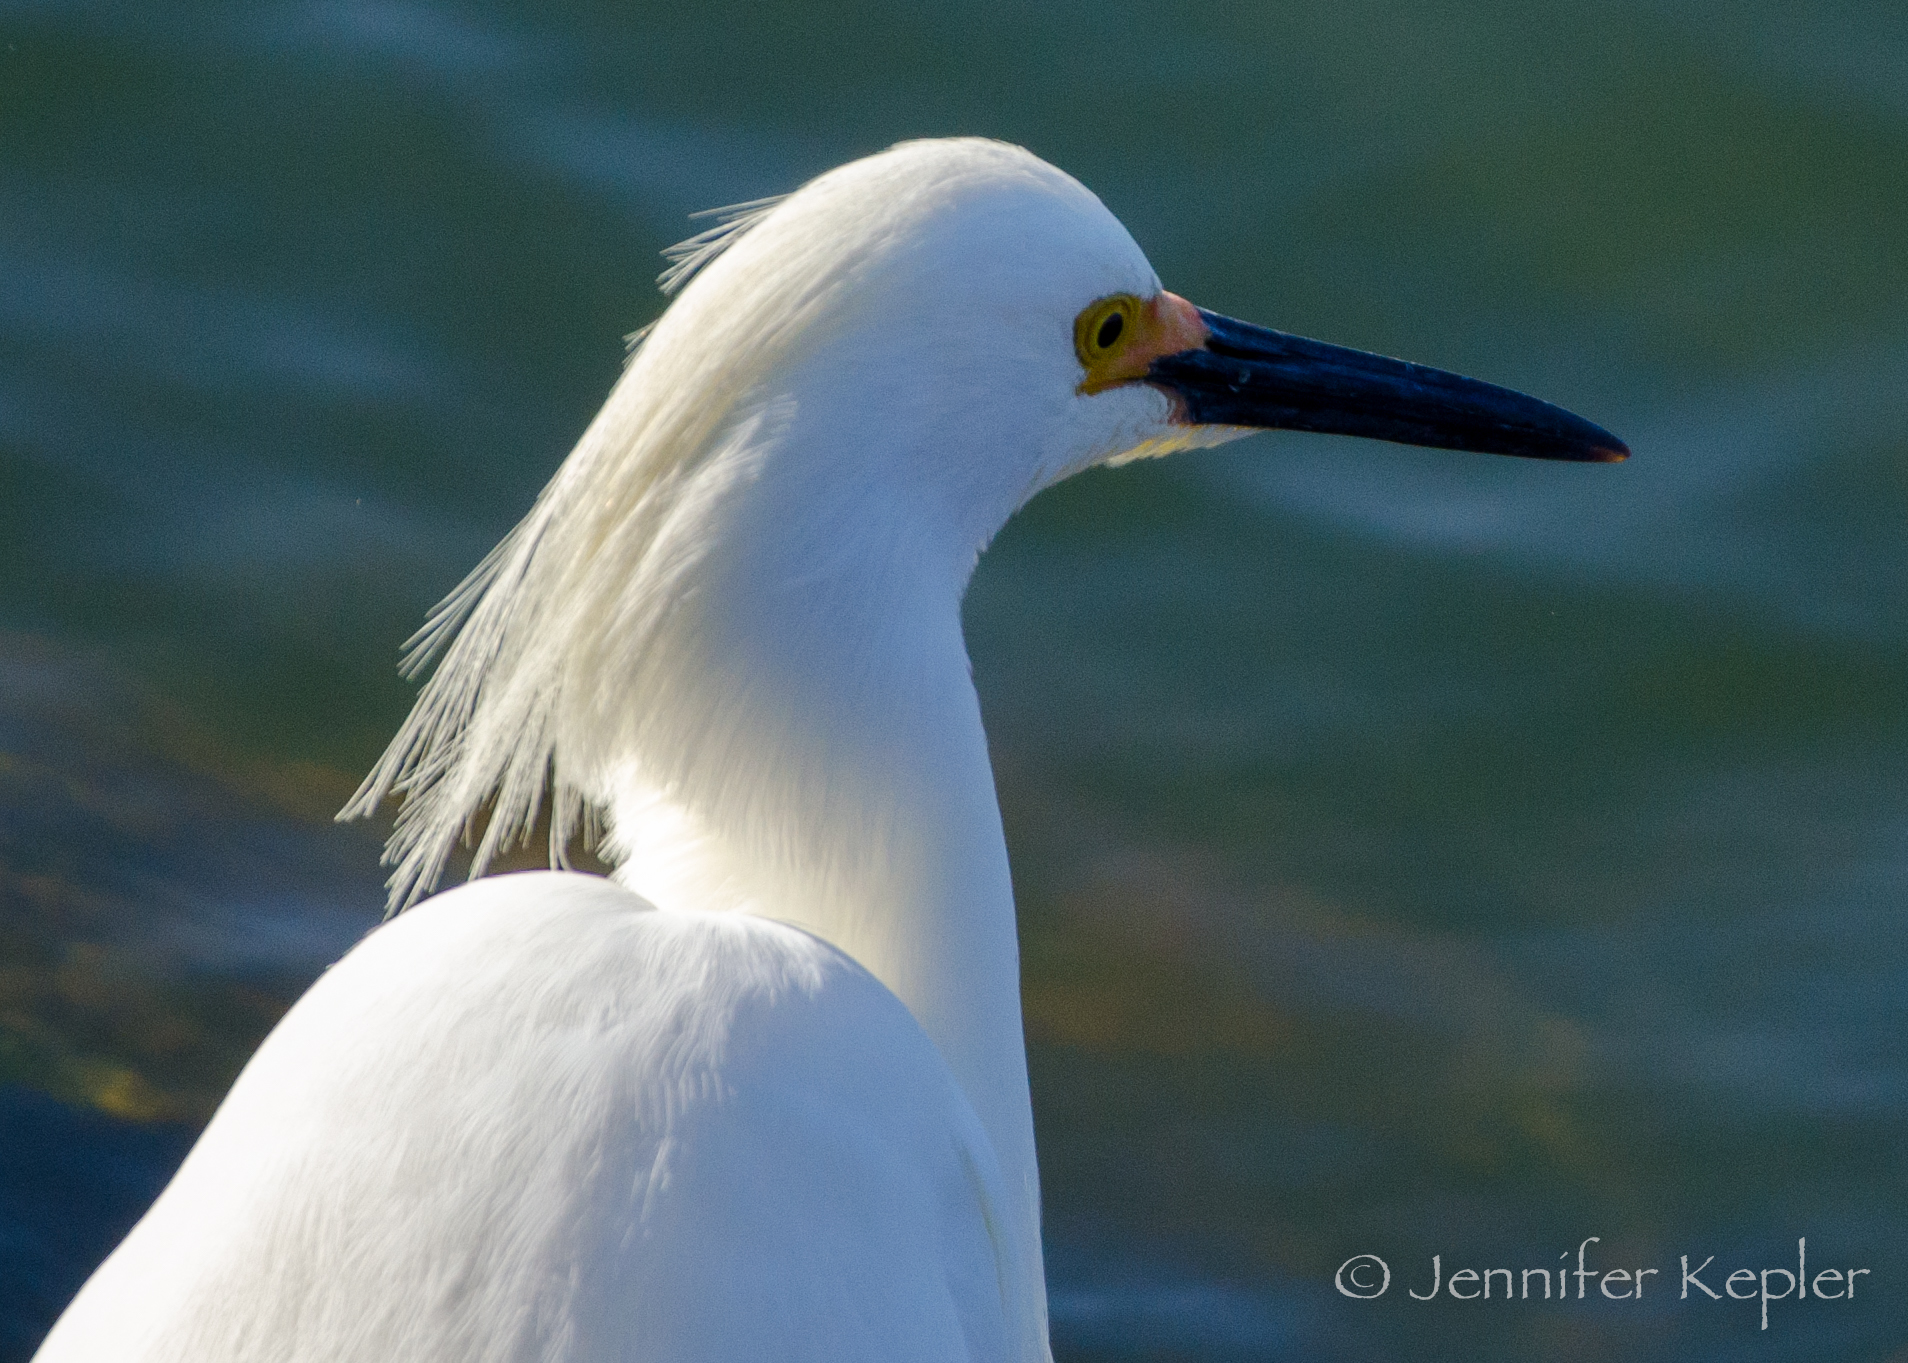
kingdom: Animalia
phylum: Chordata
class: Aves
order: Pelecaniformes
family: Ardeidae
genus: Egretta
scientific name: Egretta thula
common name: Snowy egret
